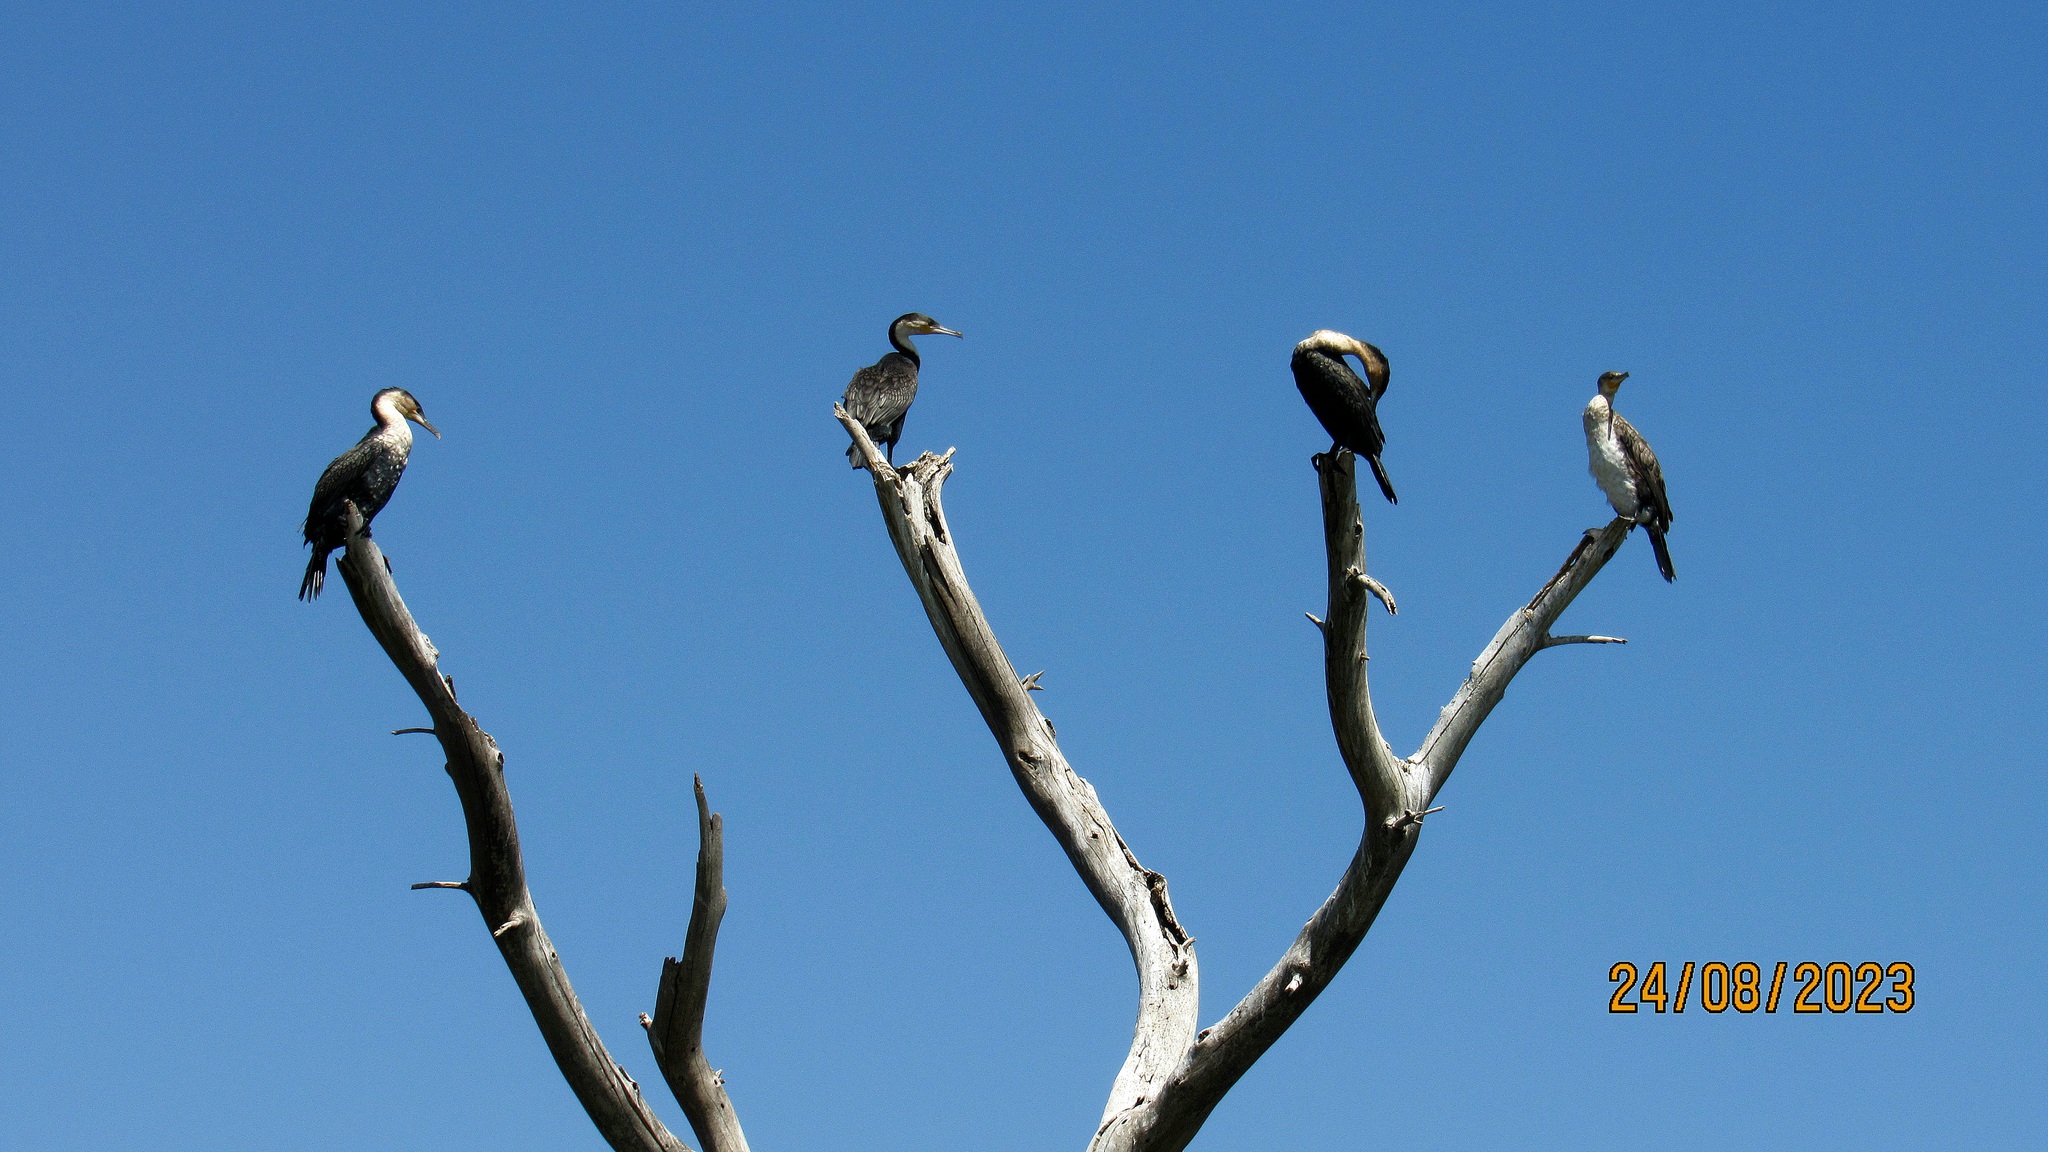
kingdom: Animalia
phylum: Chordata
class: Aves
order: Suliformes
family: Phalacrocoracidae
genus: Phalacrocorax
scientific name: Phalacrocorax carbo
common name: Great cormorant
